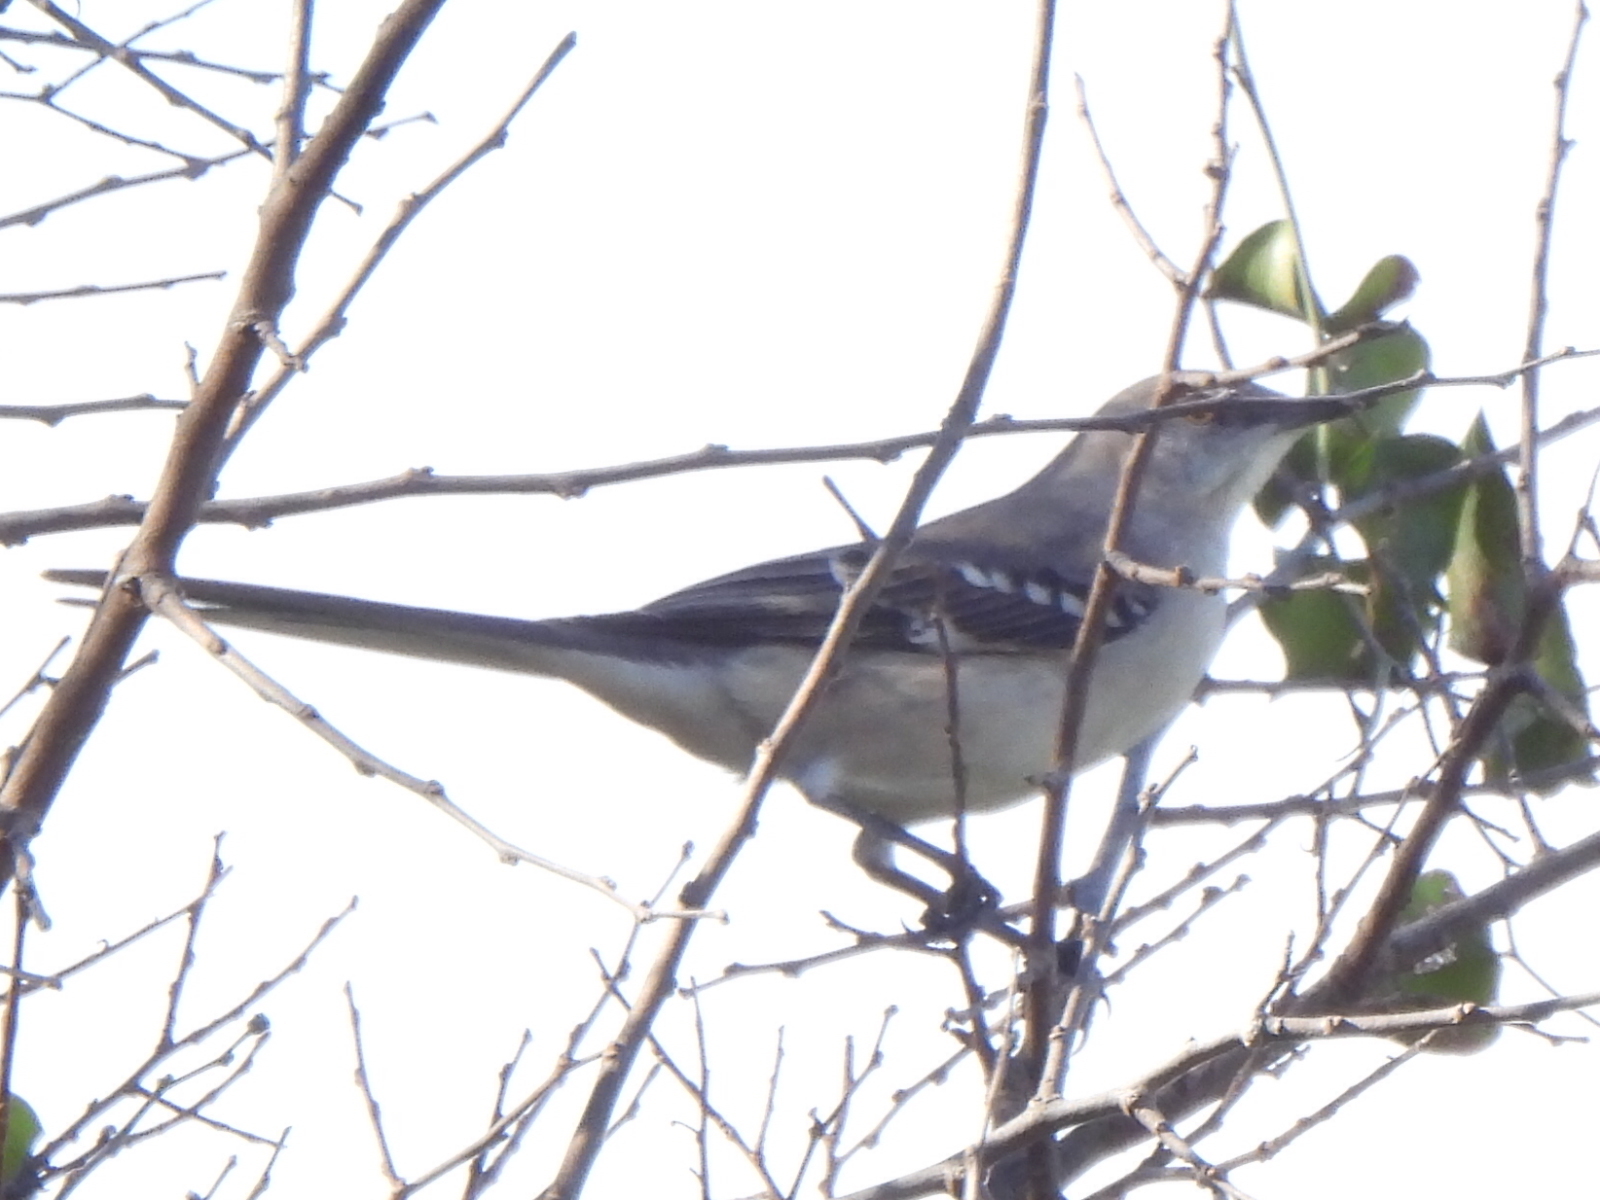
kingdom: Animalia
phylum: Chordata
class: Aves
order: Passeriformes
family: Mimidae
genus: Mimus
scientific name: Mimus polyglottos
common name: Northern mockingbird
